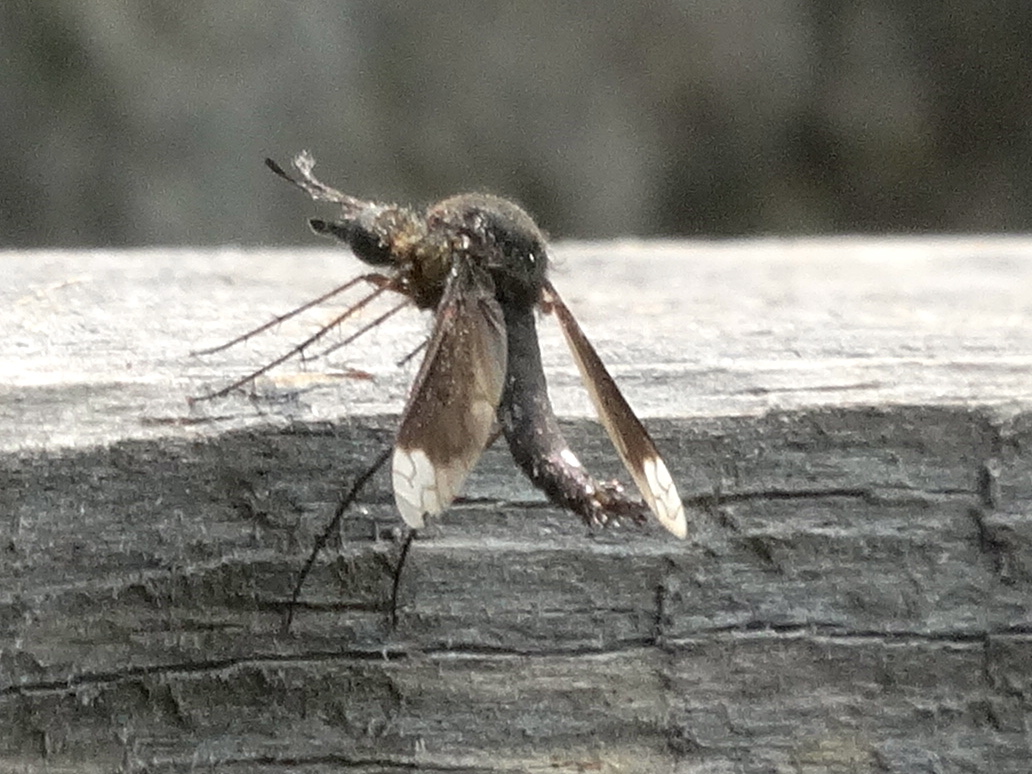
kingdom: Animalia
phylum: Arthropoda
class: Insecta
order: Diptera
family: Bombyliidae
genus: Lepidophora
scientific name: Lepidophora vetusta
